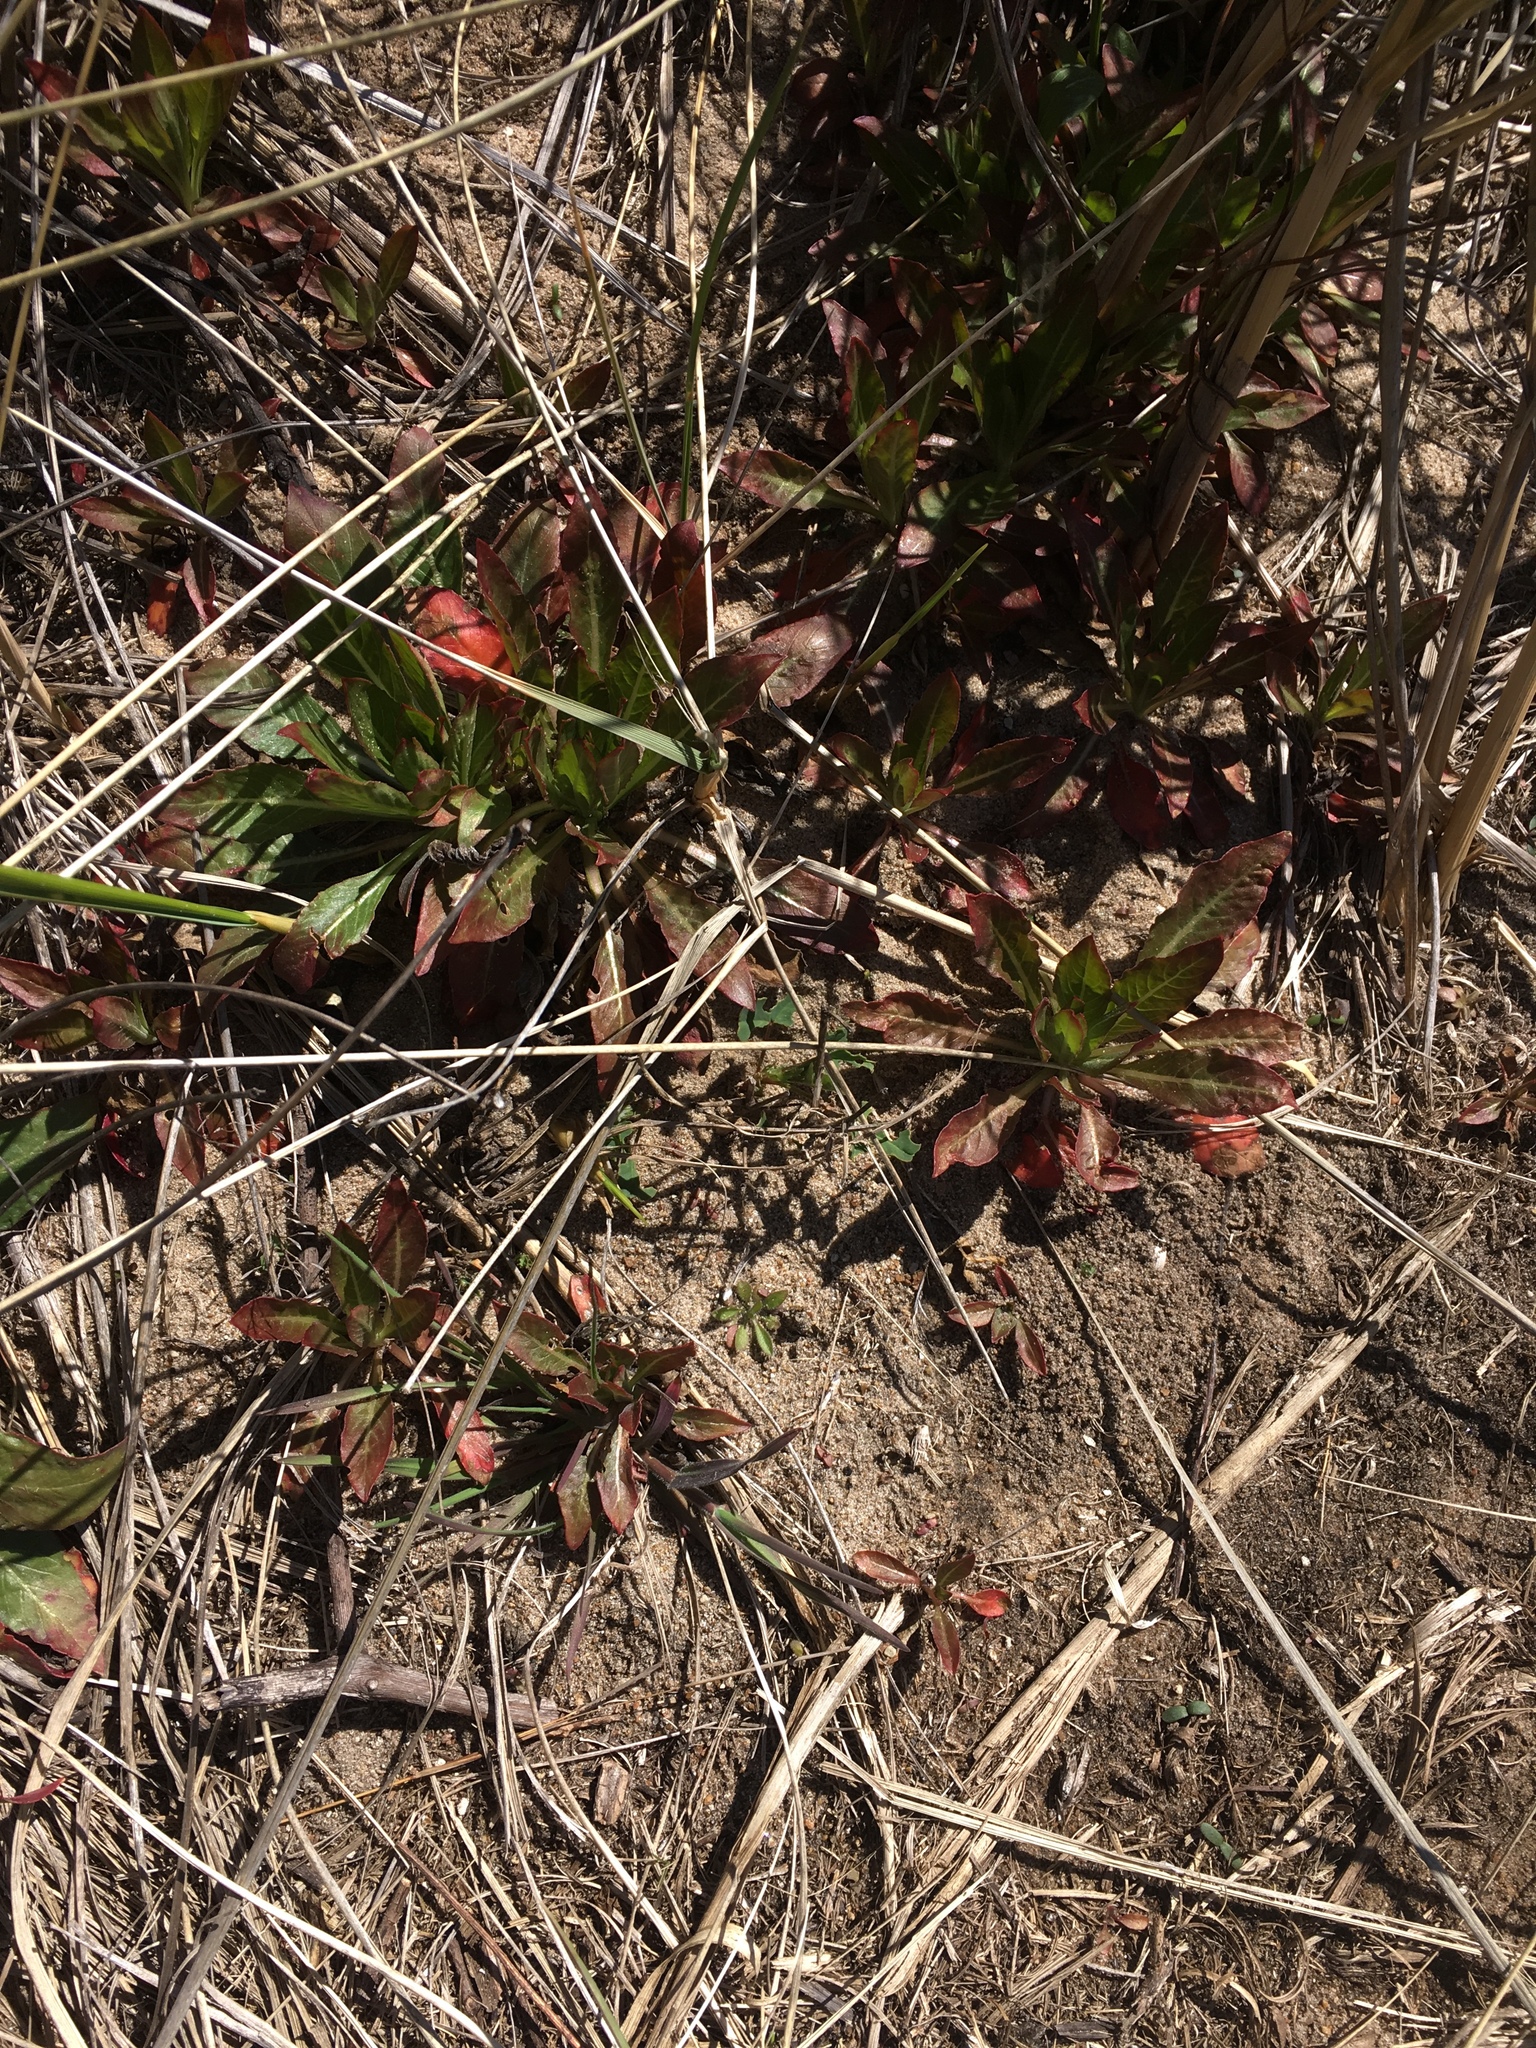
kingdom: Plantae
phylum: Tracheophyta
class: Magnoliopsida
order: Myrtales
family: Onagraceae
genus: Oenothera
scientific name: Oenothera biennis
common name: Common evening-primrose
